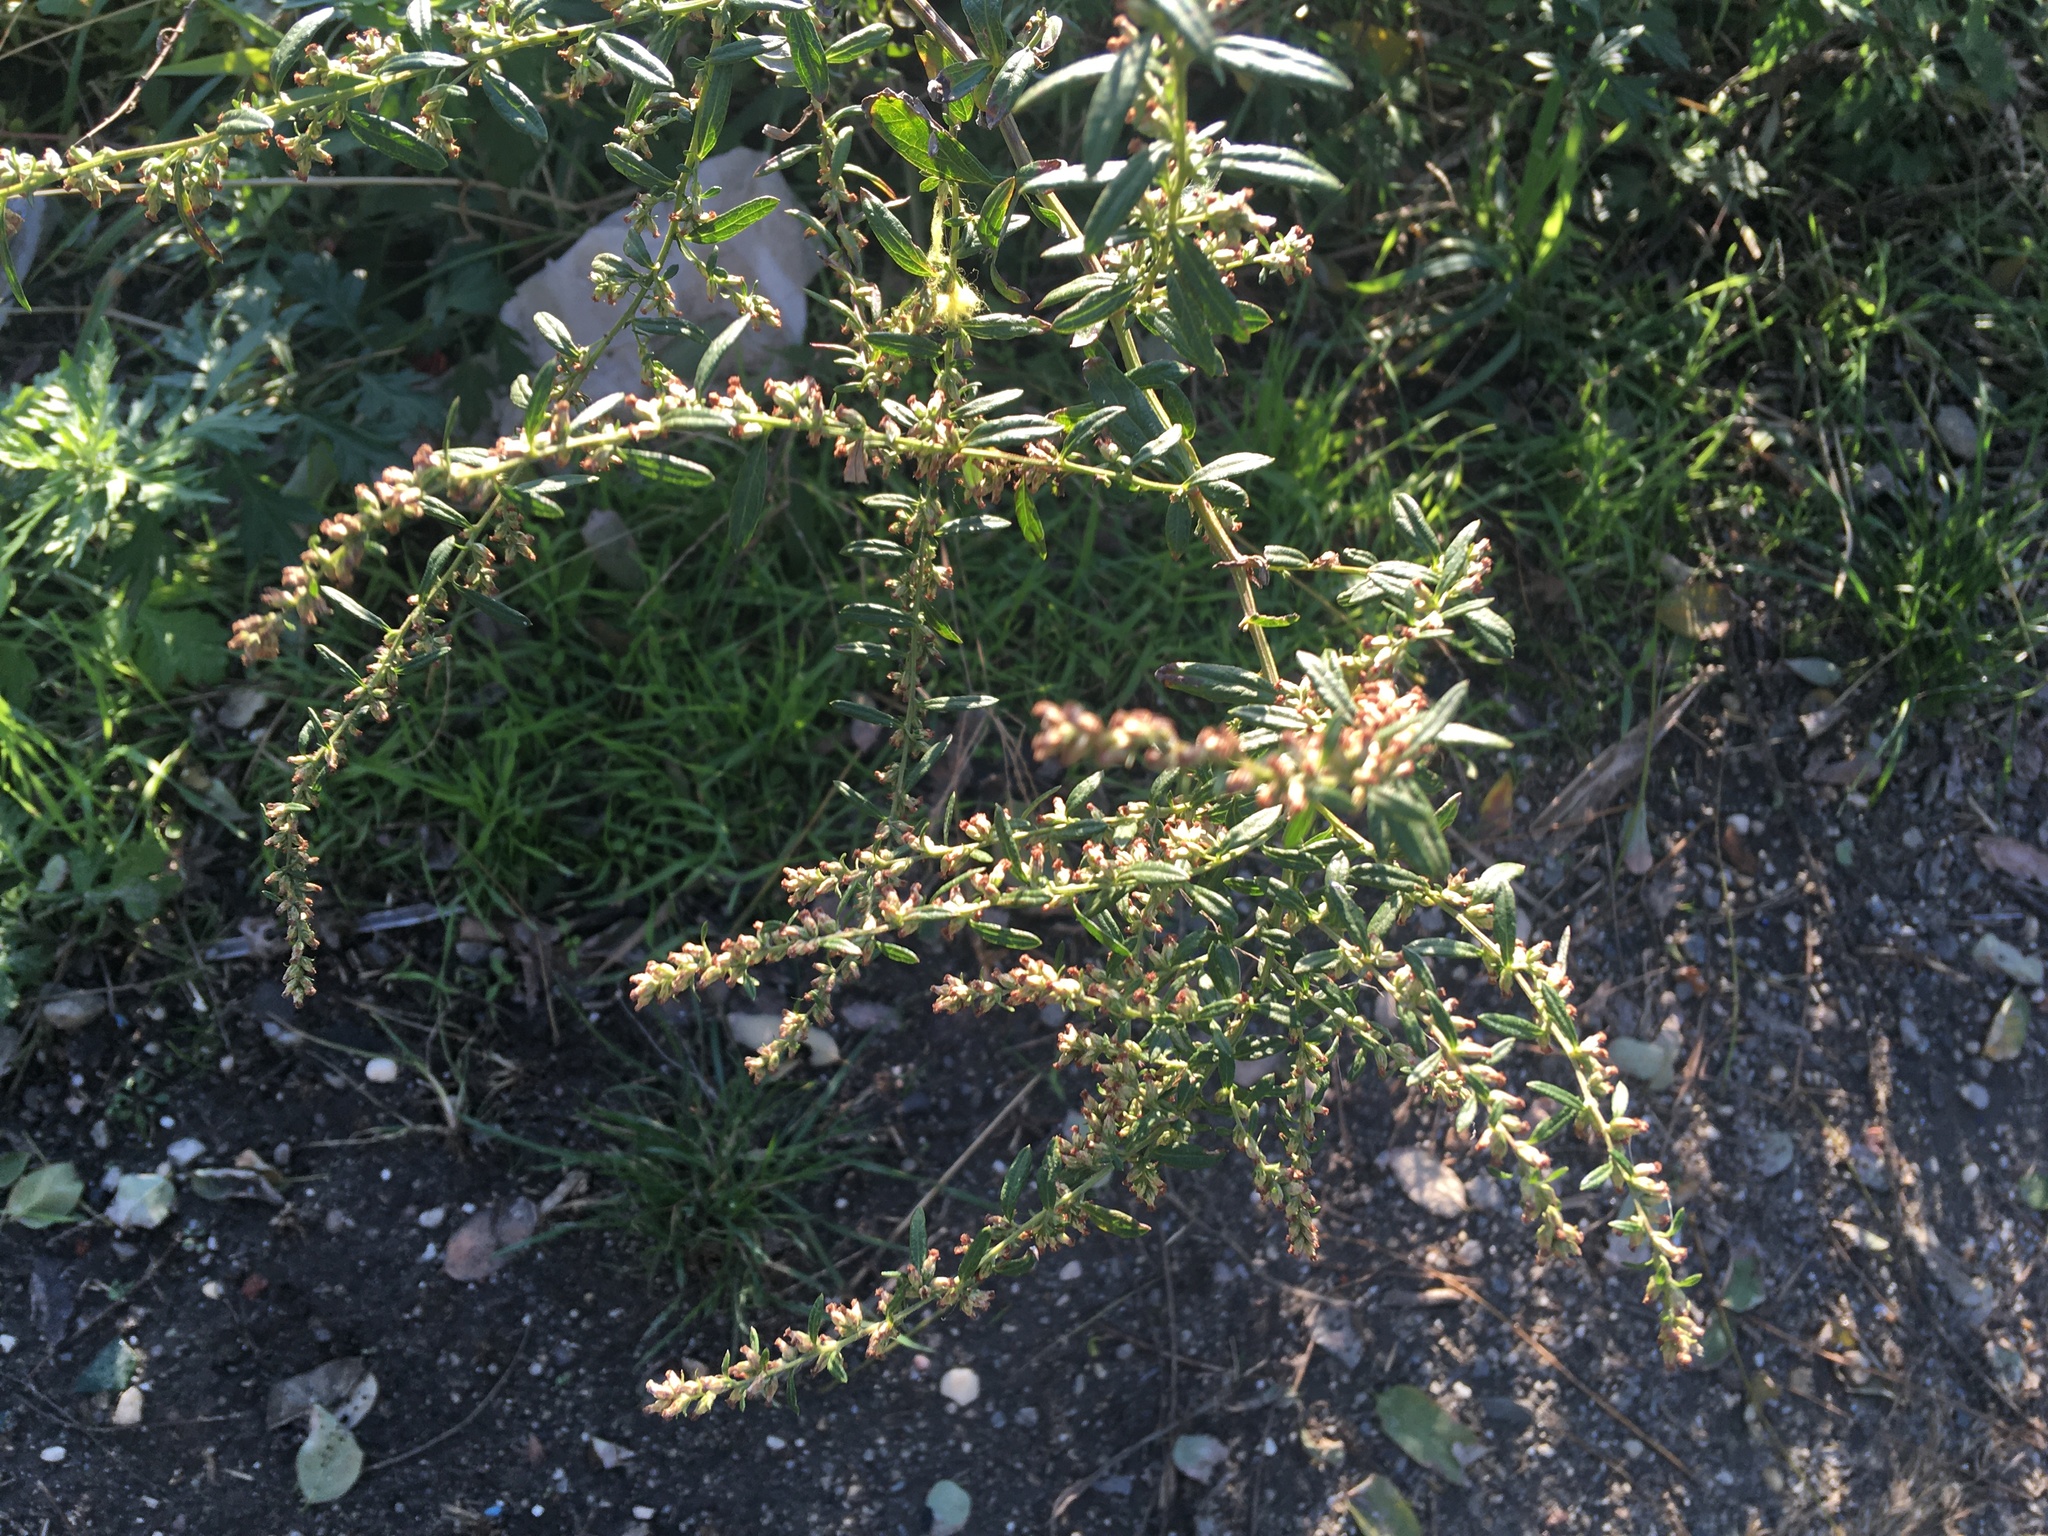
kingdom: Plantae
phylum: Tracheophyta
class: Magnoliopsida
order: Asterales
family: Asteraceae
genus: Artemisia
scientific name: Artemisia vulgaris
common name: Mugwort
